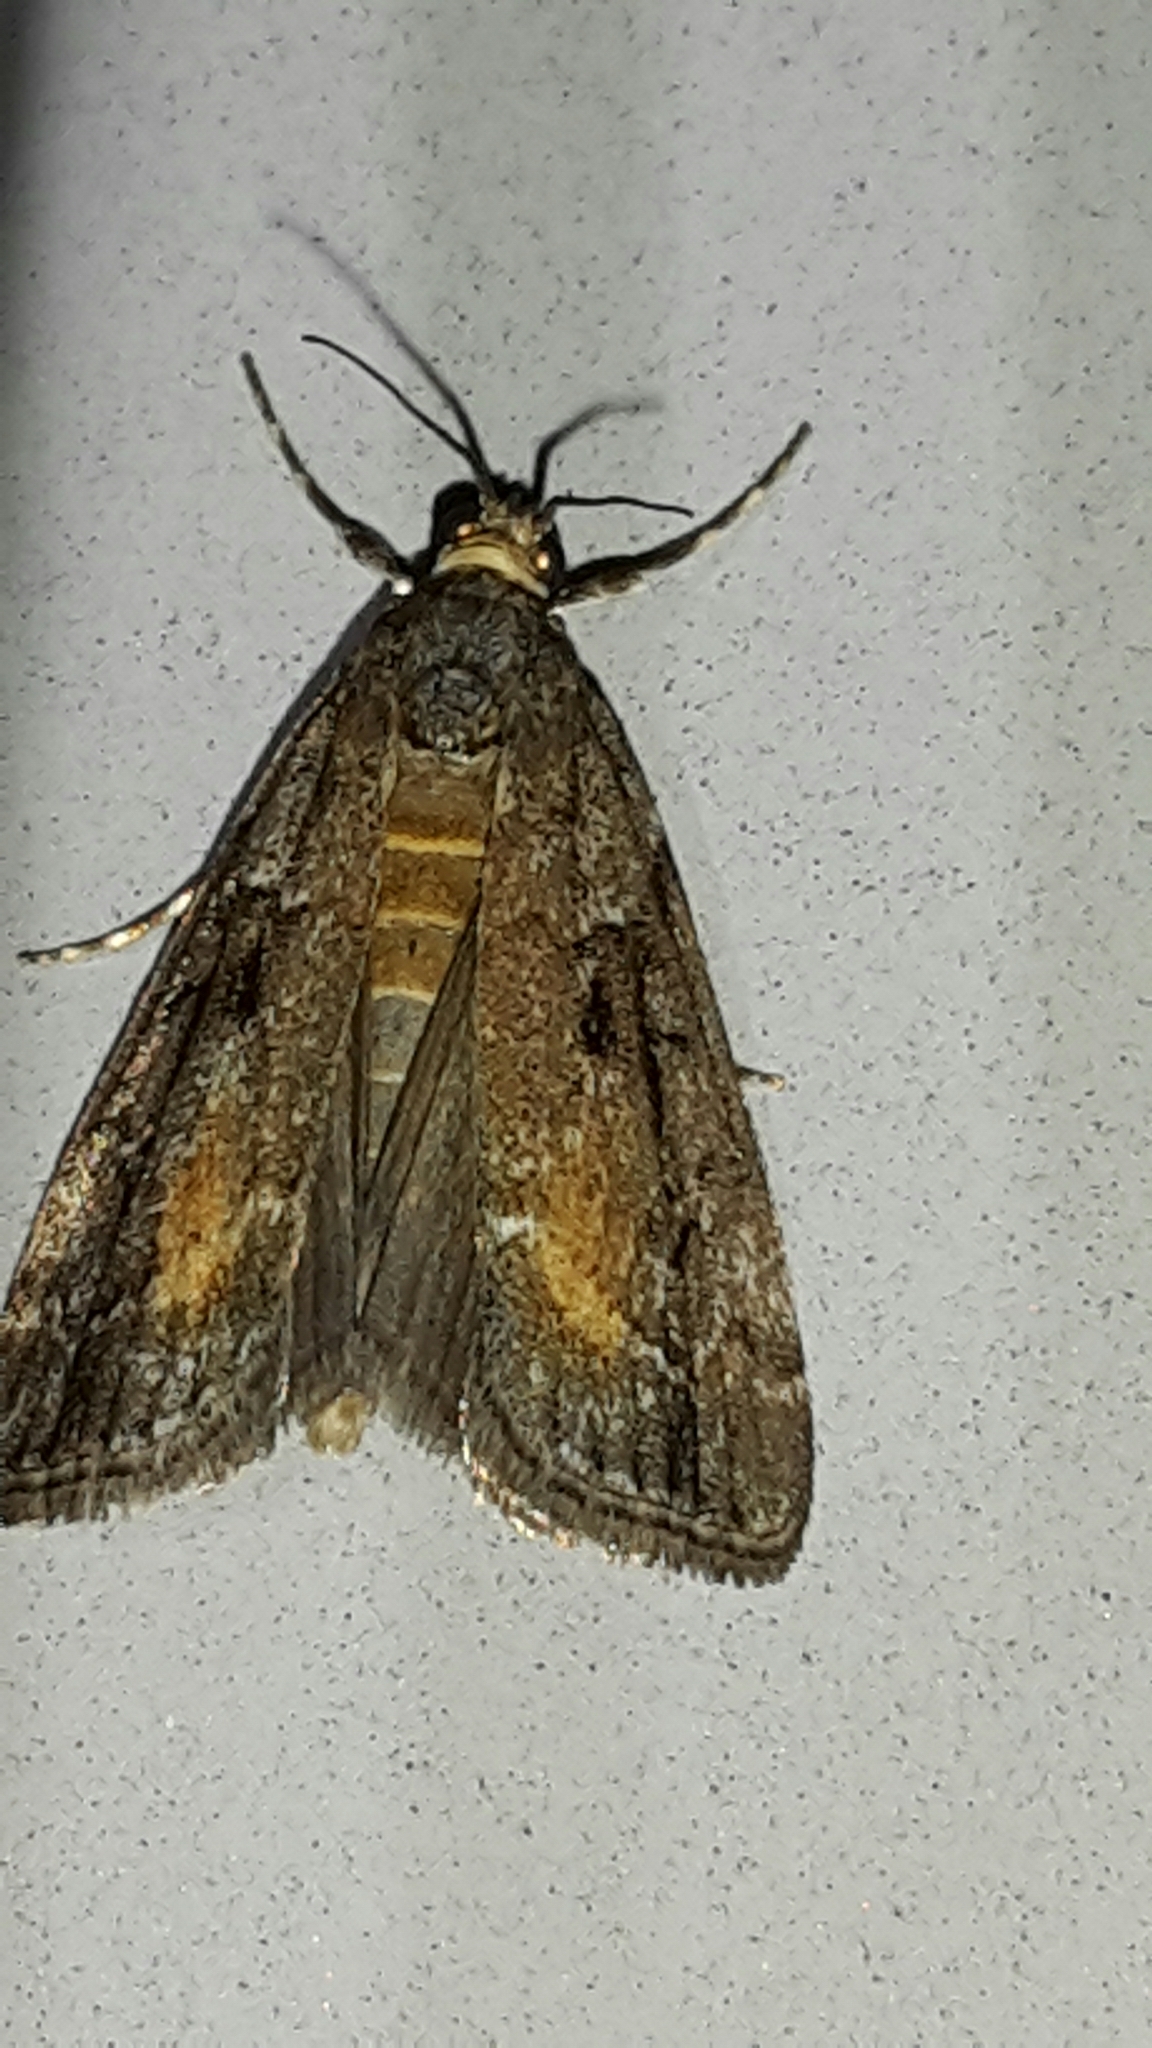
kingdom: Animalia
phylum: Arthropoda
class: Insecta
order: Lepidoptera
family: Crambidae
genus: Eudonia
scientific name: Eudonia submarginalis
